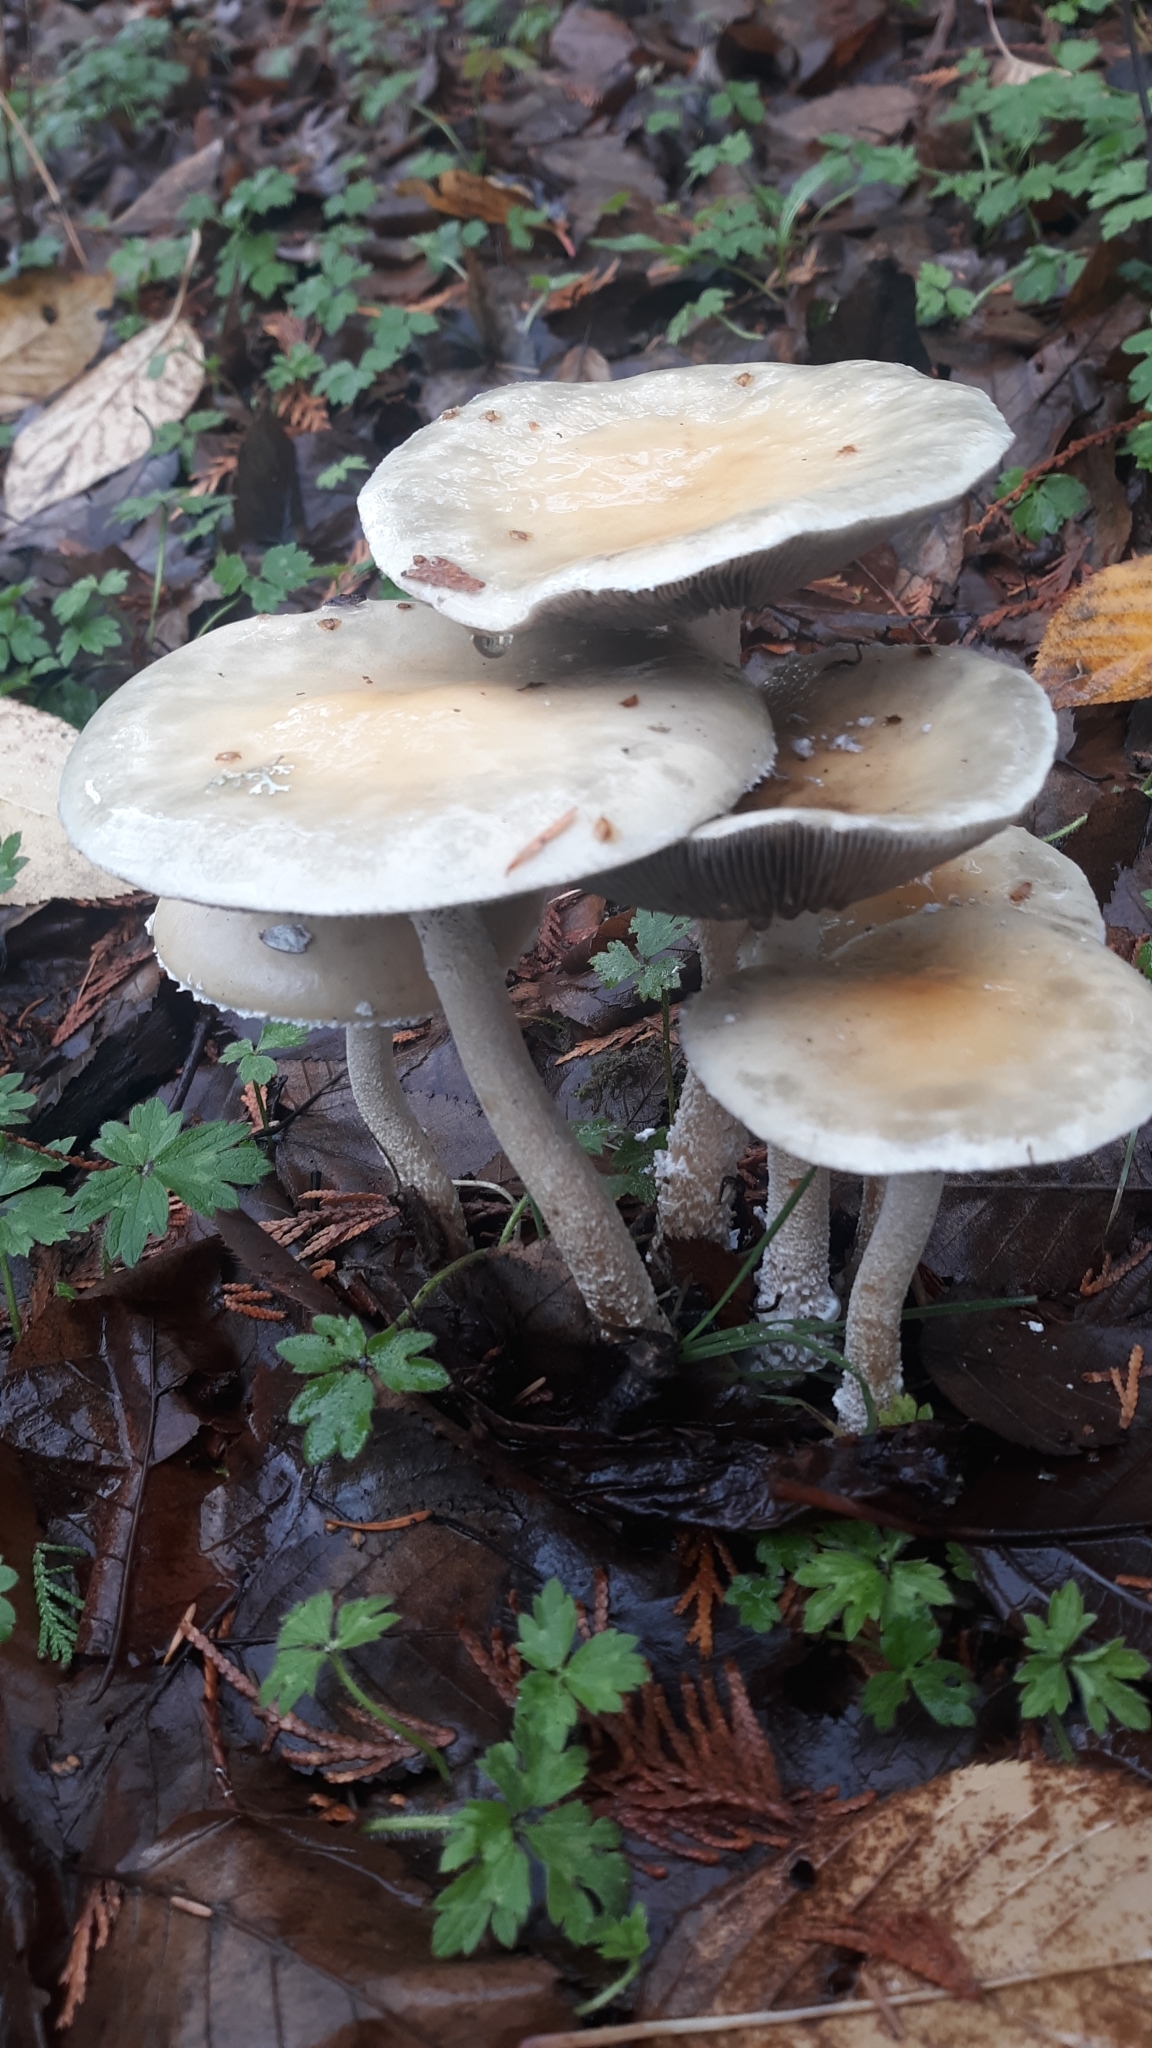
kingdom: Fungi
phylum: Basidiomycota
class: Agaricomycetes
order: Agaricales
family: Strophariaceae
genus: Stropharia
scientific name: Stropharia ambigua
